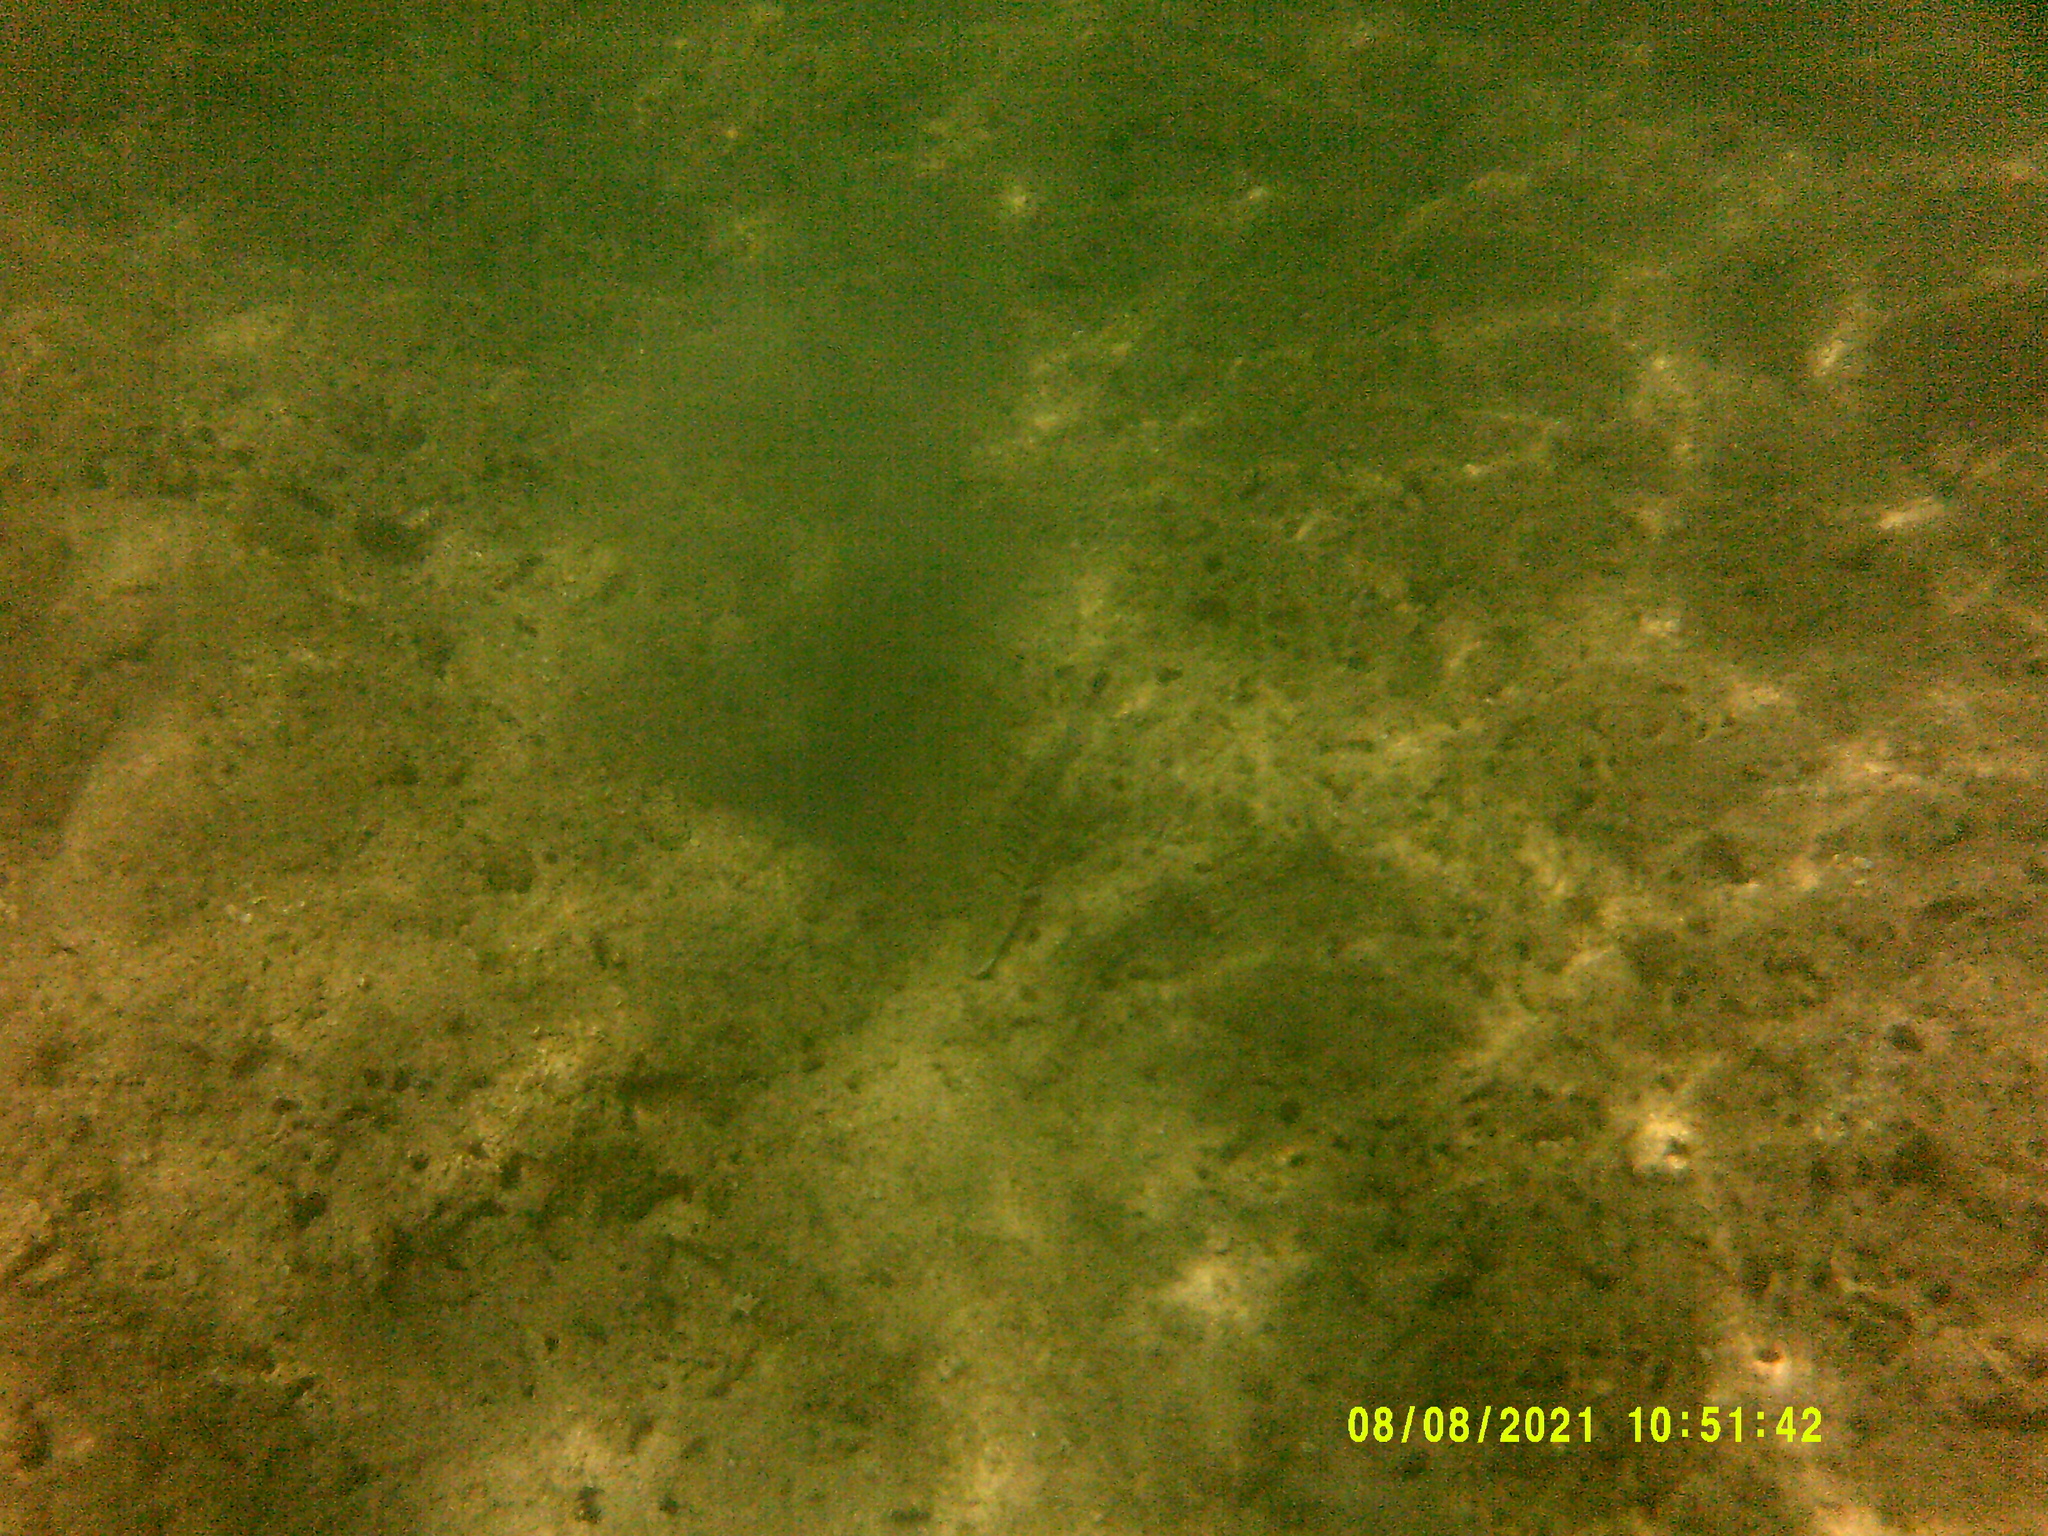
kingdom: Animalia
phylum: Chordata
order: Perciformes
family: Sparidae
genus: Lithognathus
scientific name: Lithognathus mormyrus
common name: Sand steenbras
